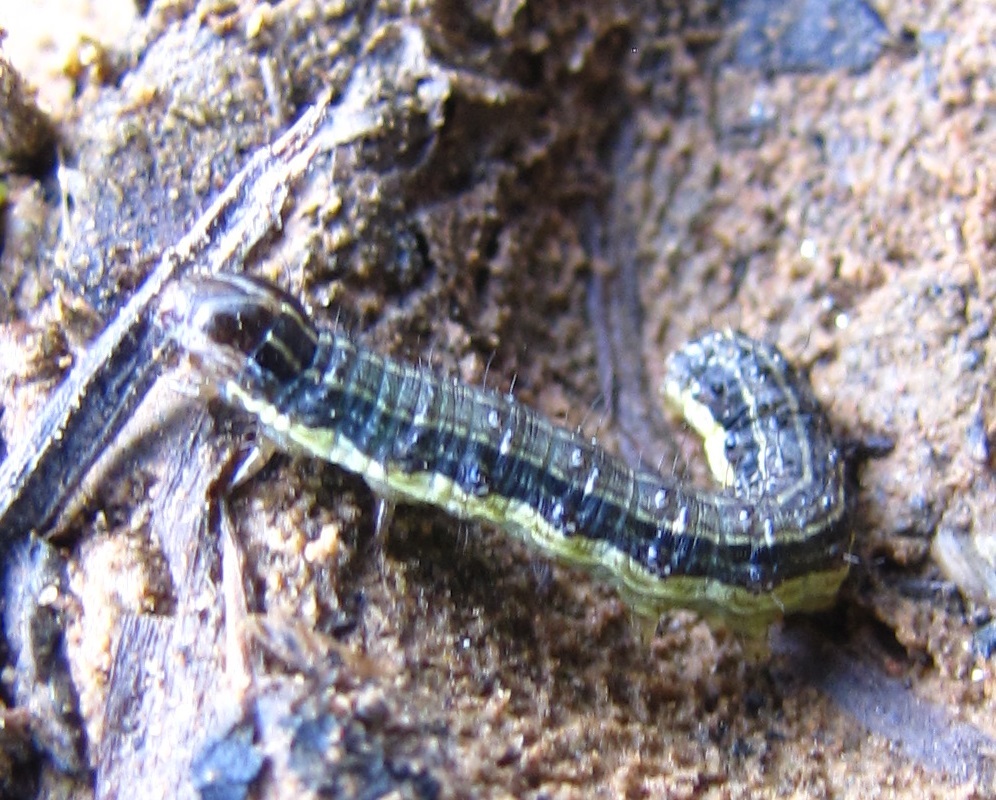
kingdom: Animalia
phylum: Arthropoda
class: Insecta
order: Lepidoptera
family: Noctuidae
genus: Spodoptera
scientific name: Spodoptera frugiperda
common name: Fall armyworm
